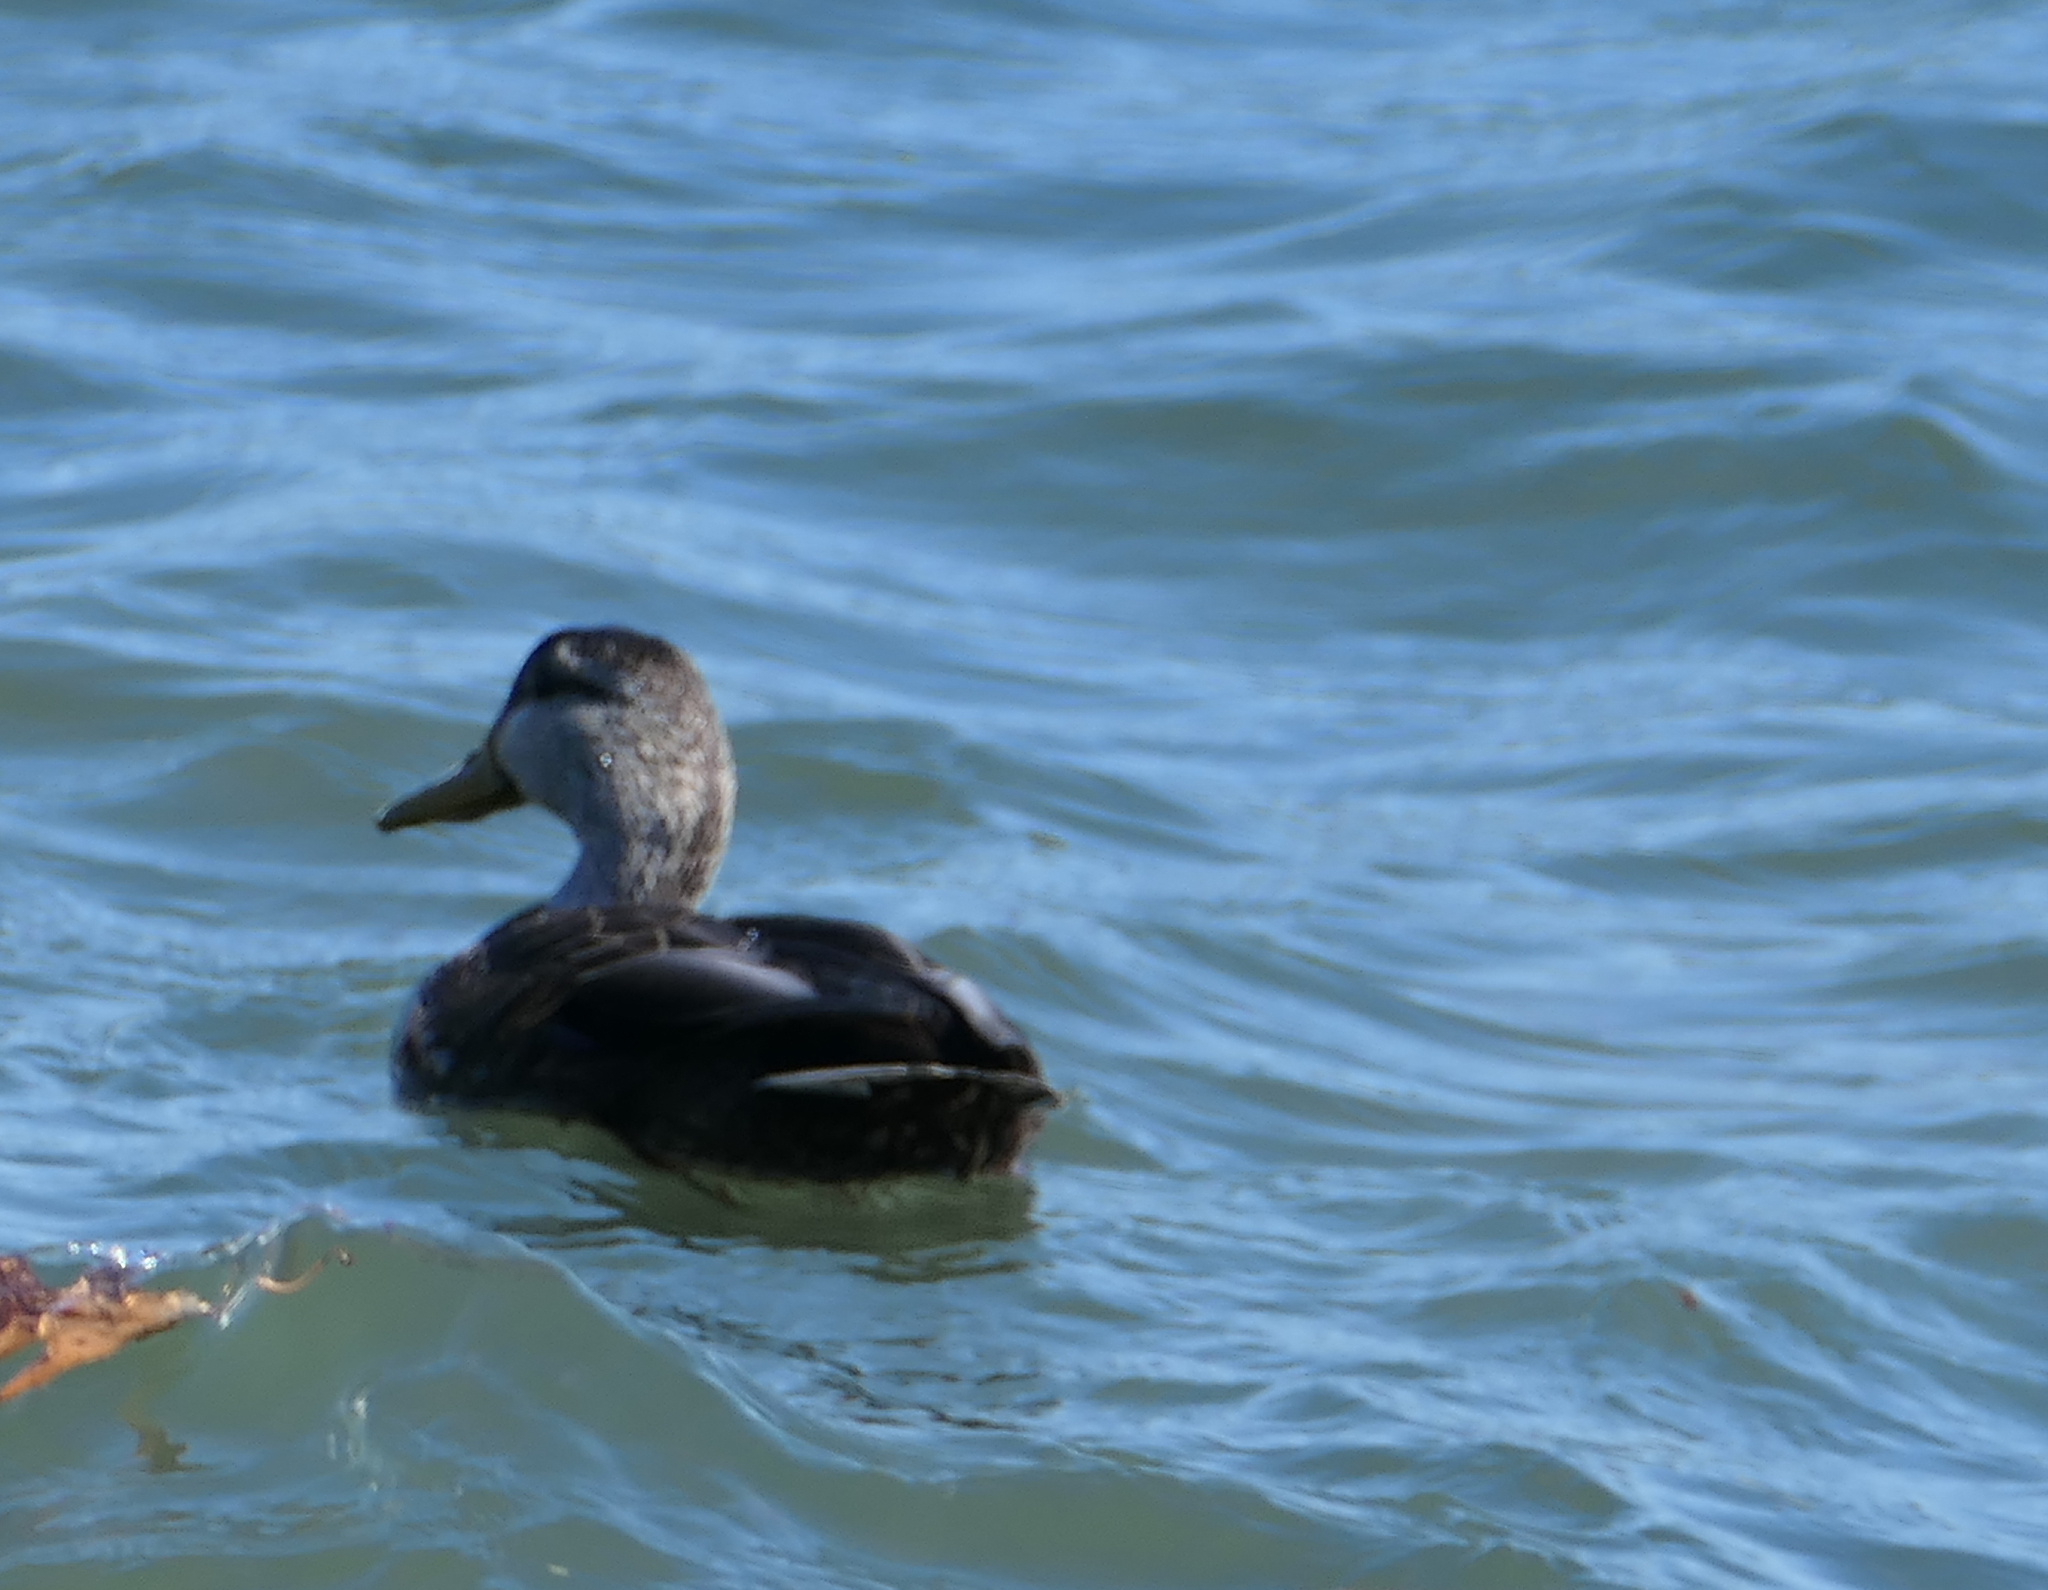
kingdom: Animalia
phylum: Chordata
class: Aves
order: Anseriformes
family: Anatidae
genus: Anas
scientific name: Anas rubripes
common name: American black duck
